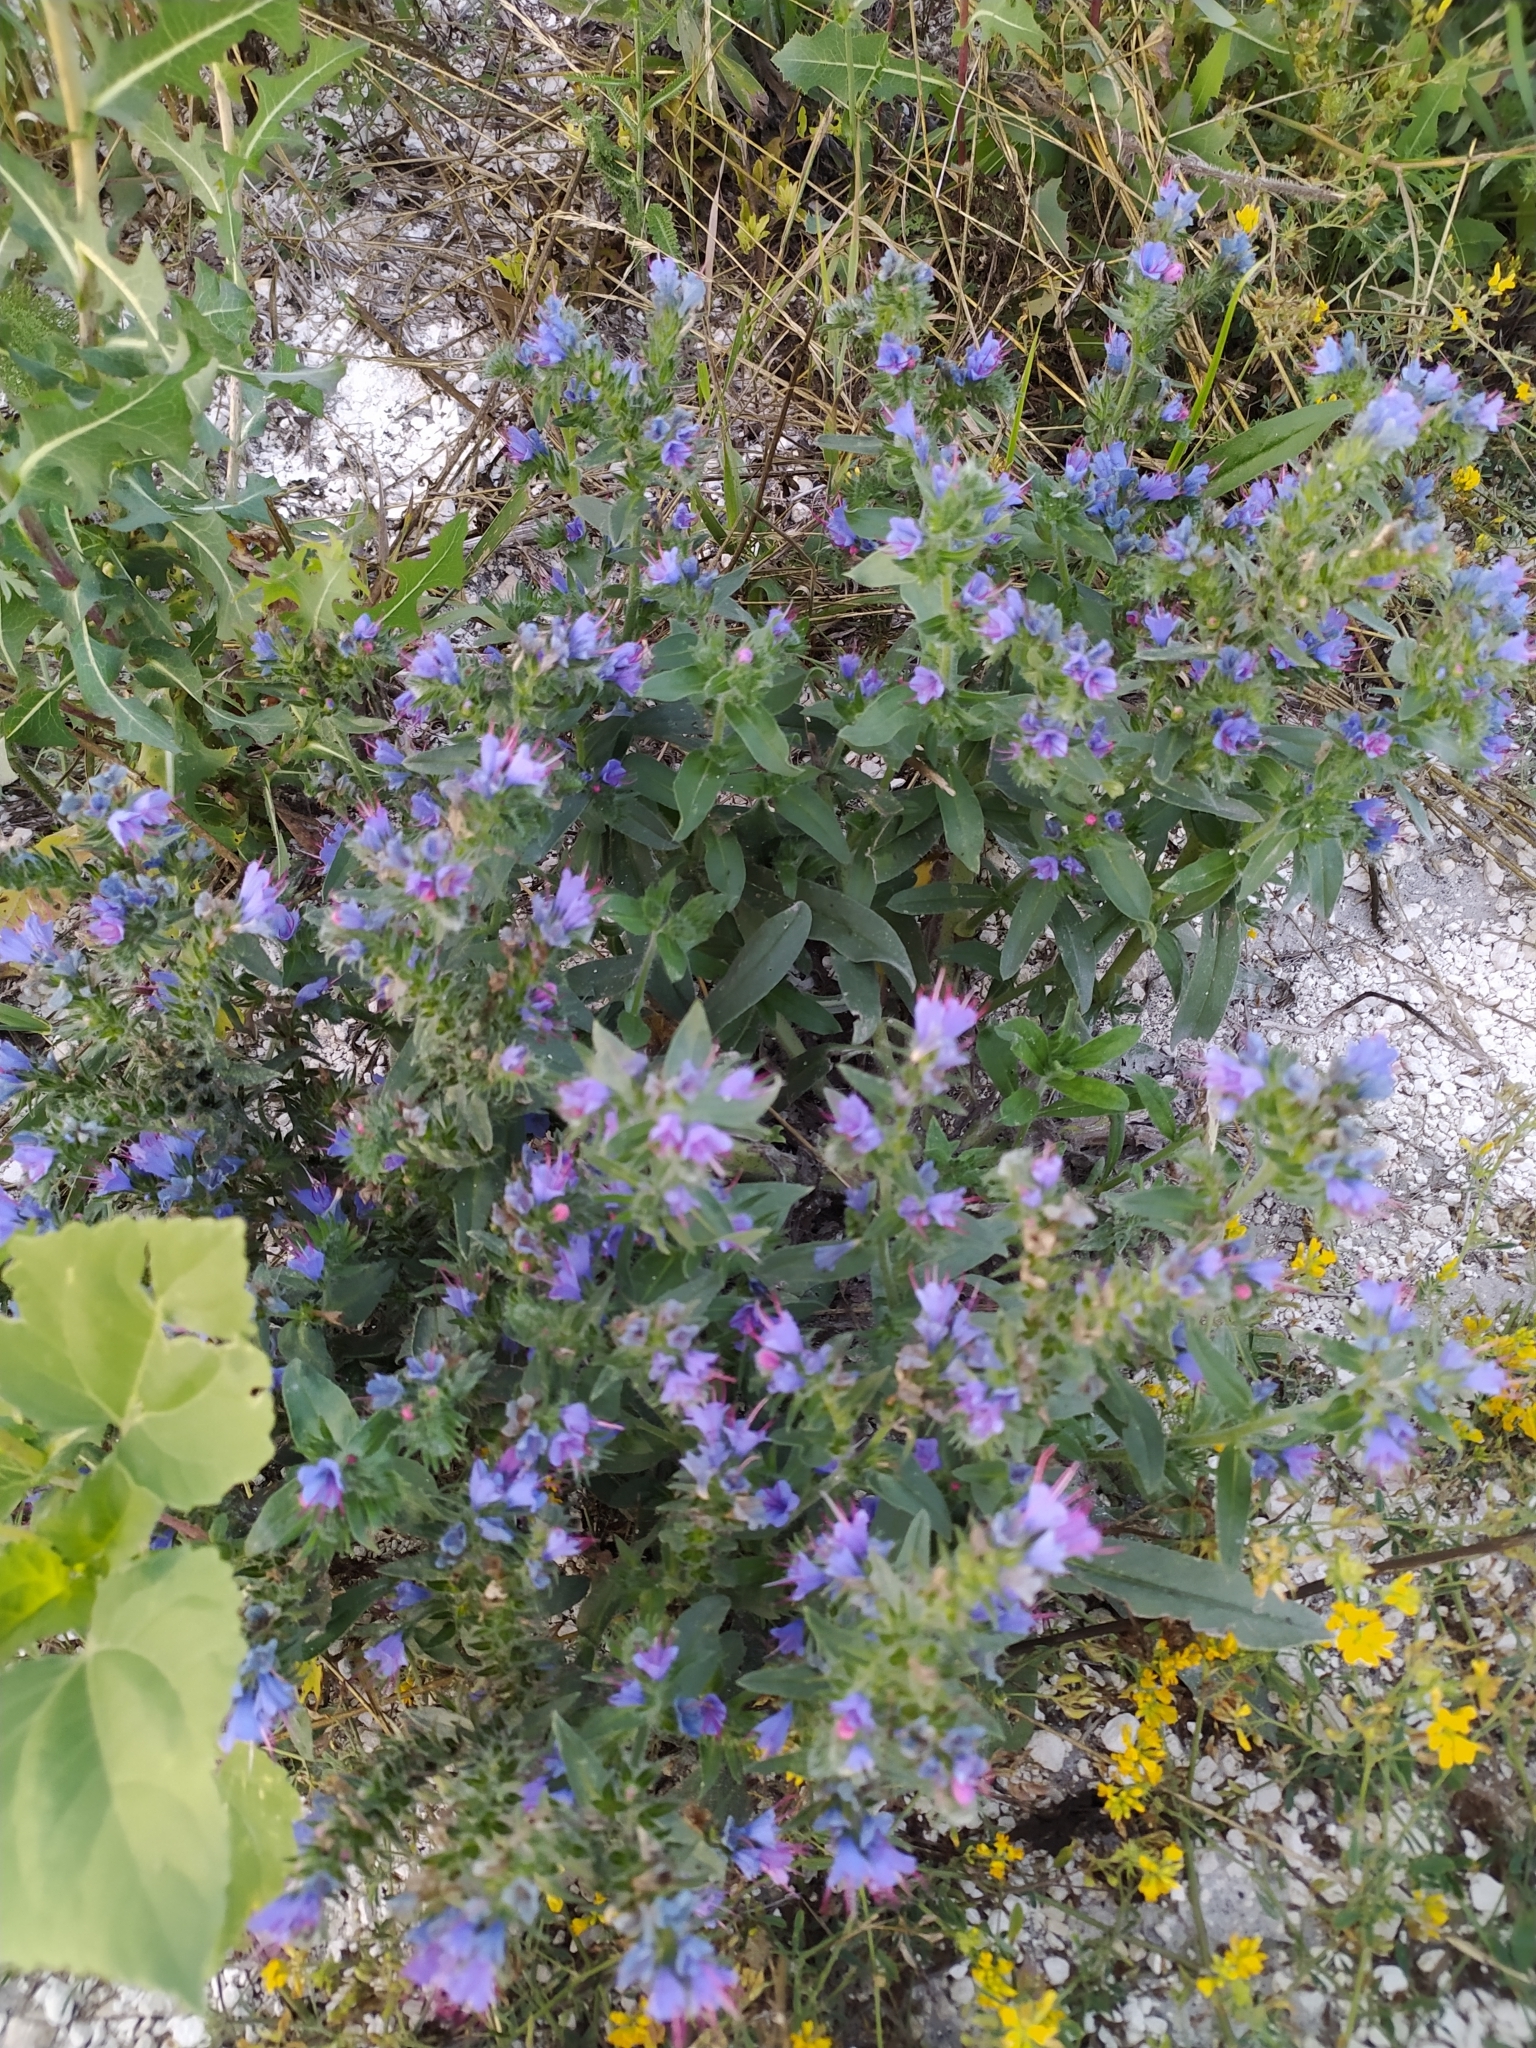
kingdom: Plantae
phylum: Tracheophyta
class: Magnoliopsida
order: Boraginales
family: Boraginaceae
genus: Echium
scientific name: Echium vulgare
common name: Common viper's bugloss
